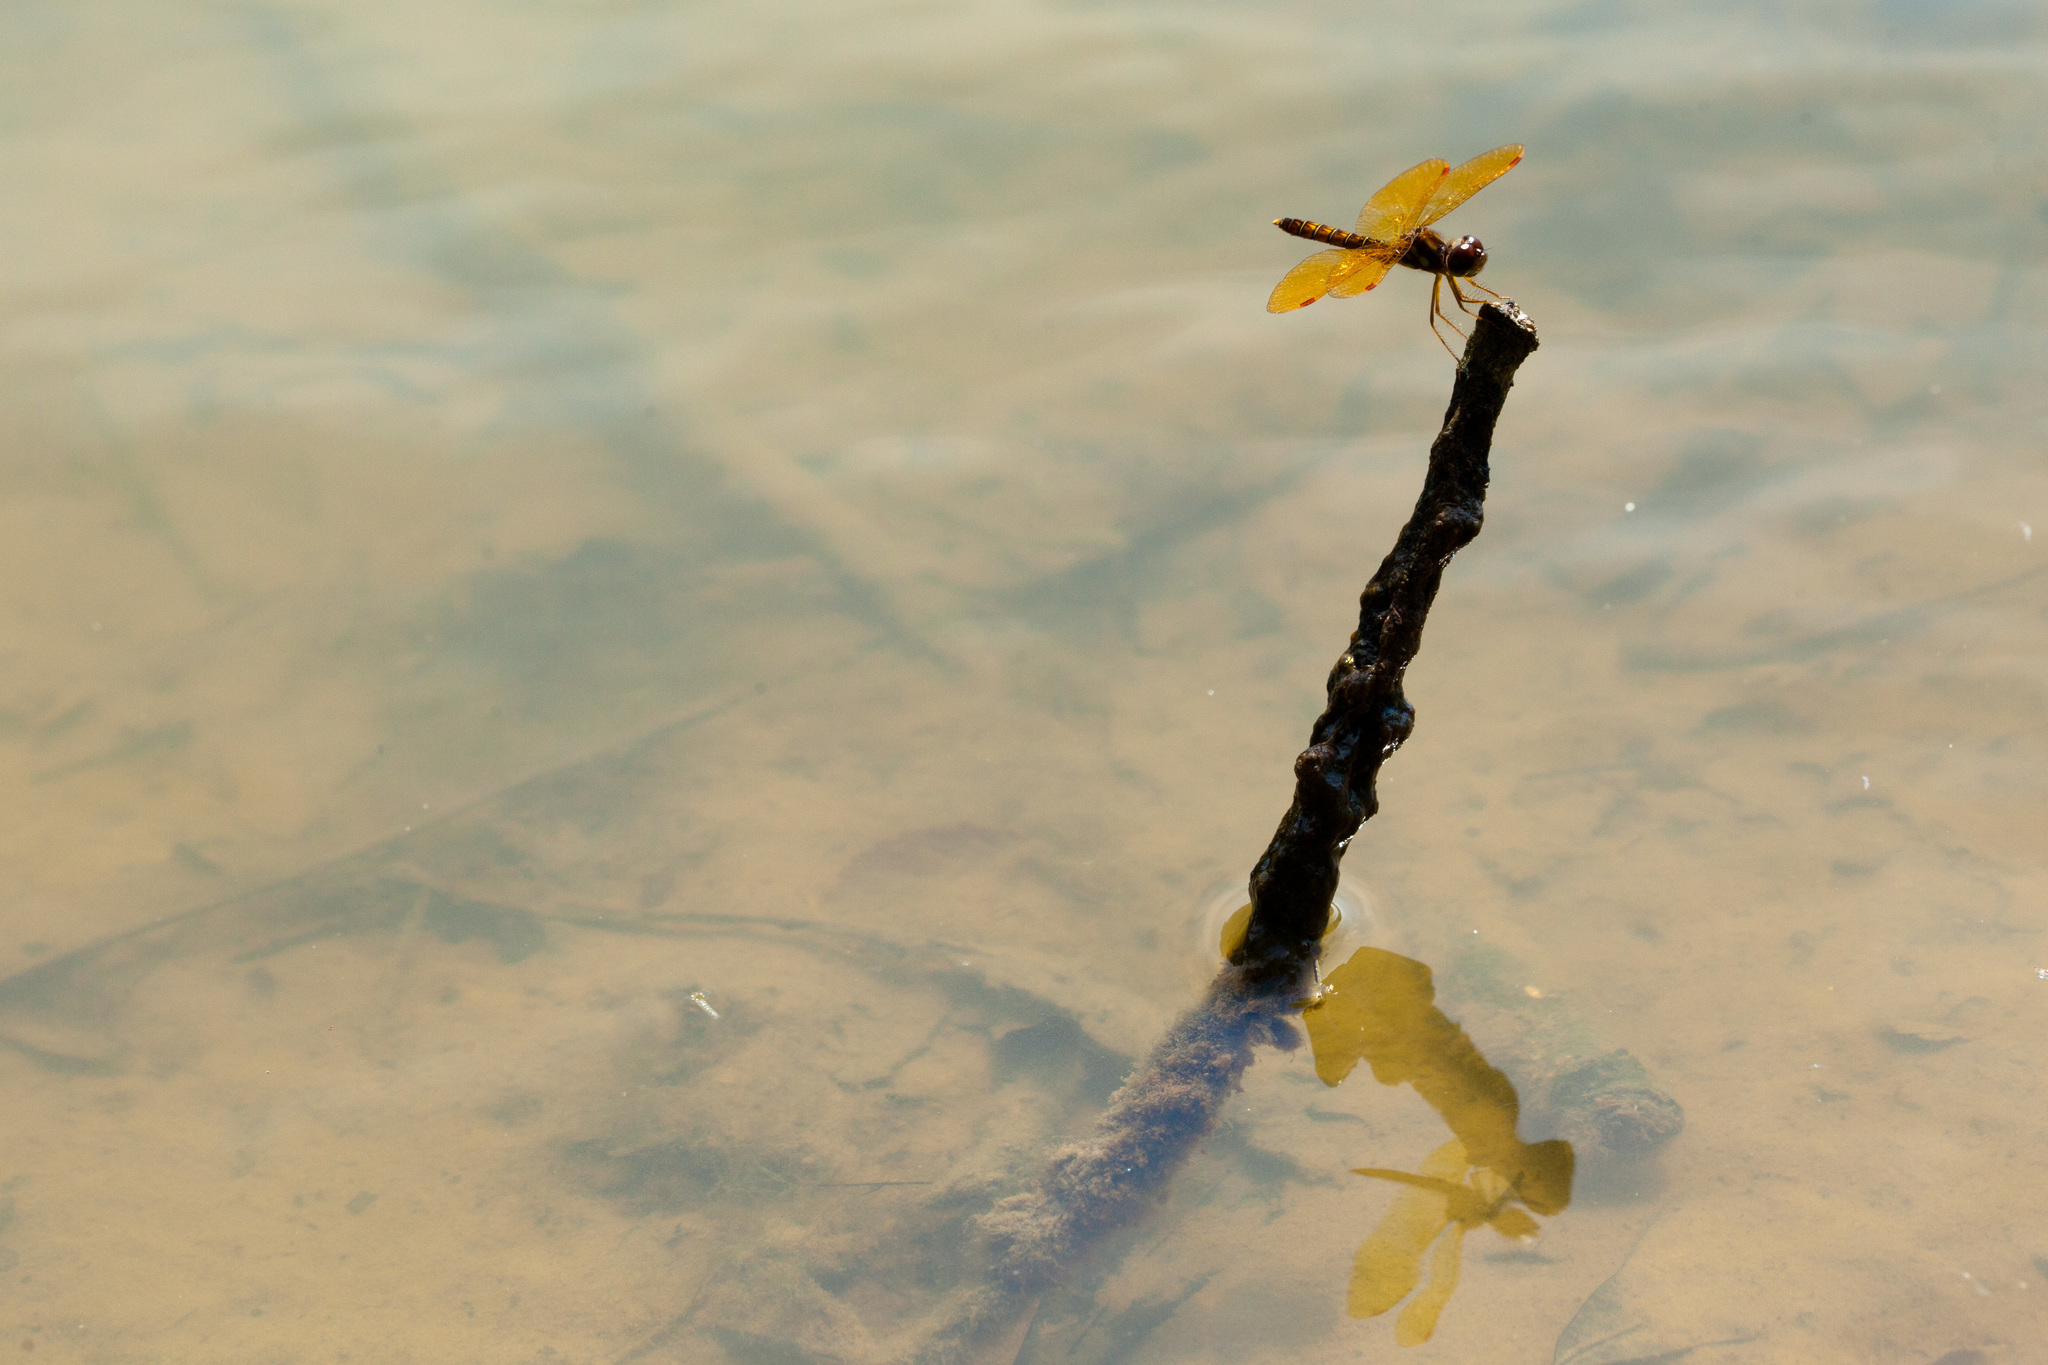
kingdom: Animalia
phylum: Arthropoda
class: Insecta
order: Odonata
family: Libellulidae
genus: Perithemis
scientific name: Perithemis tenera
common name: Eastern amberwing
